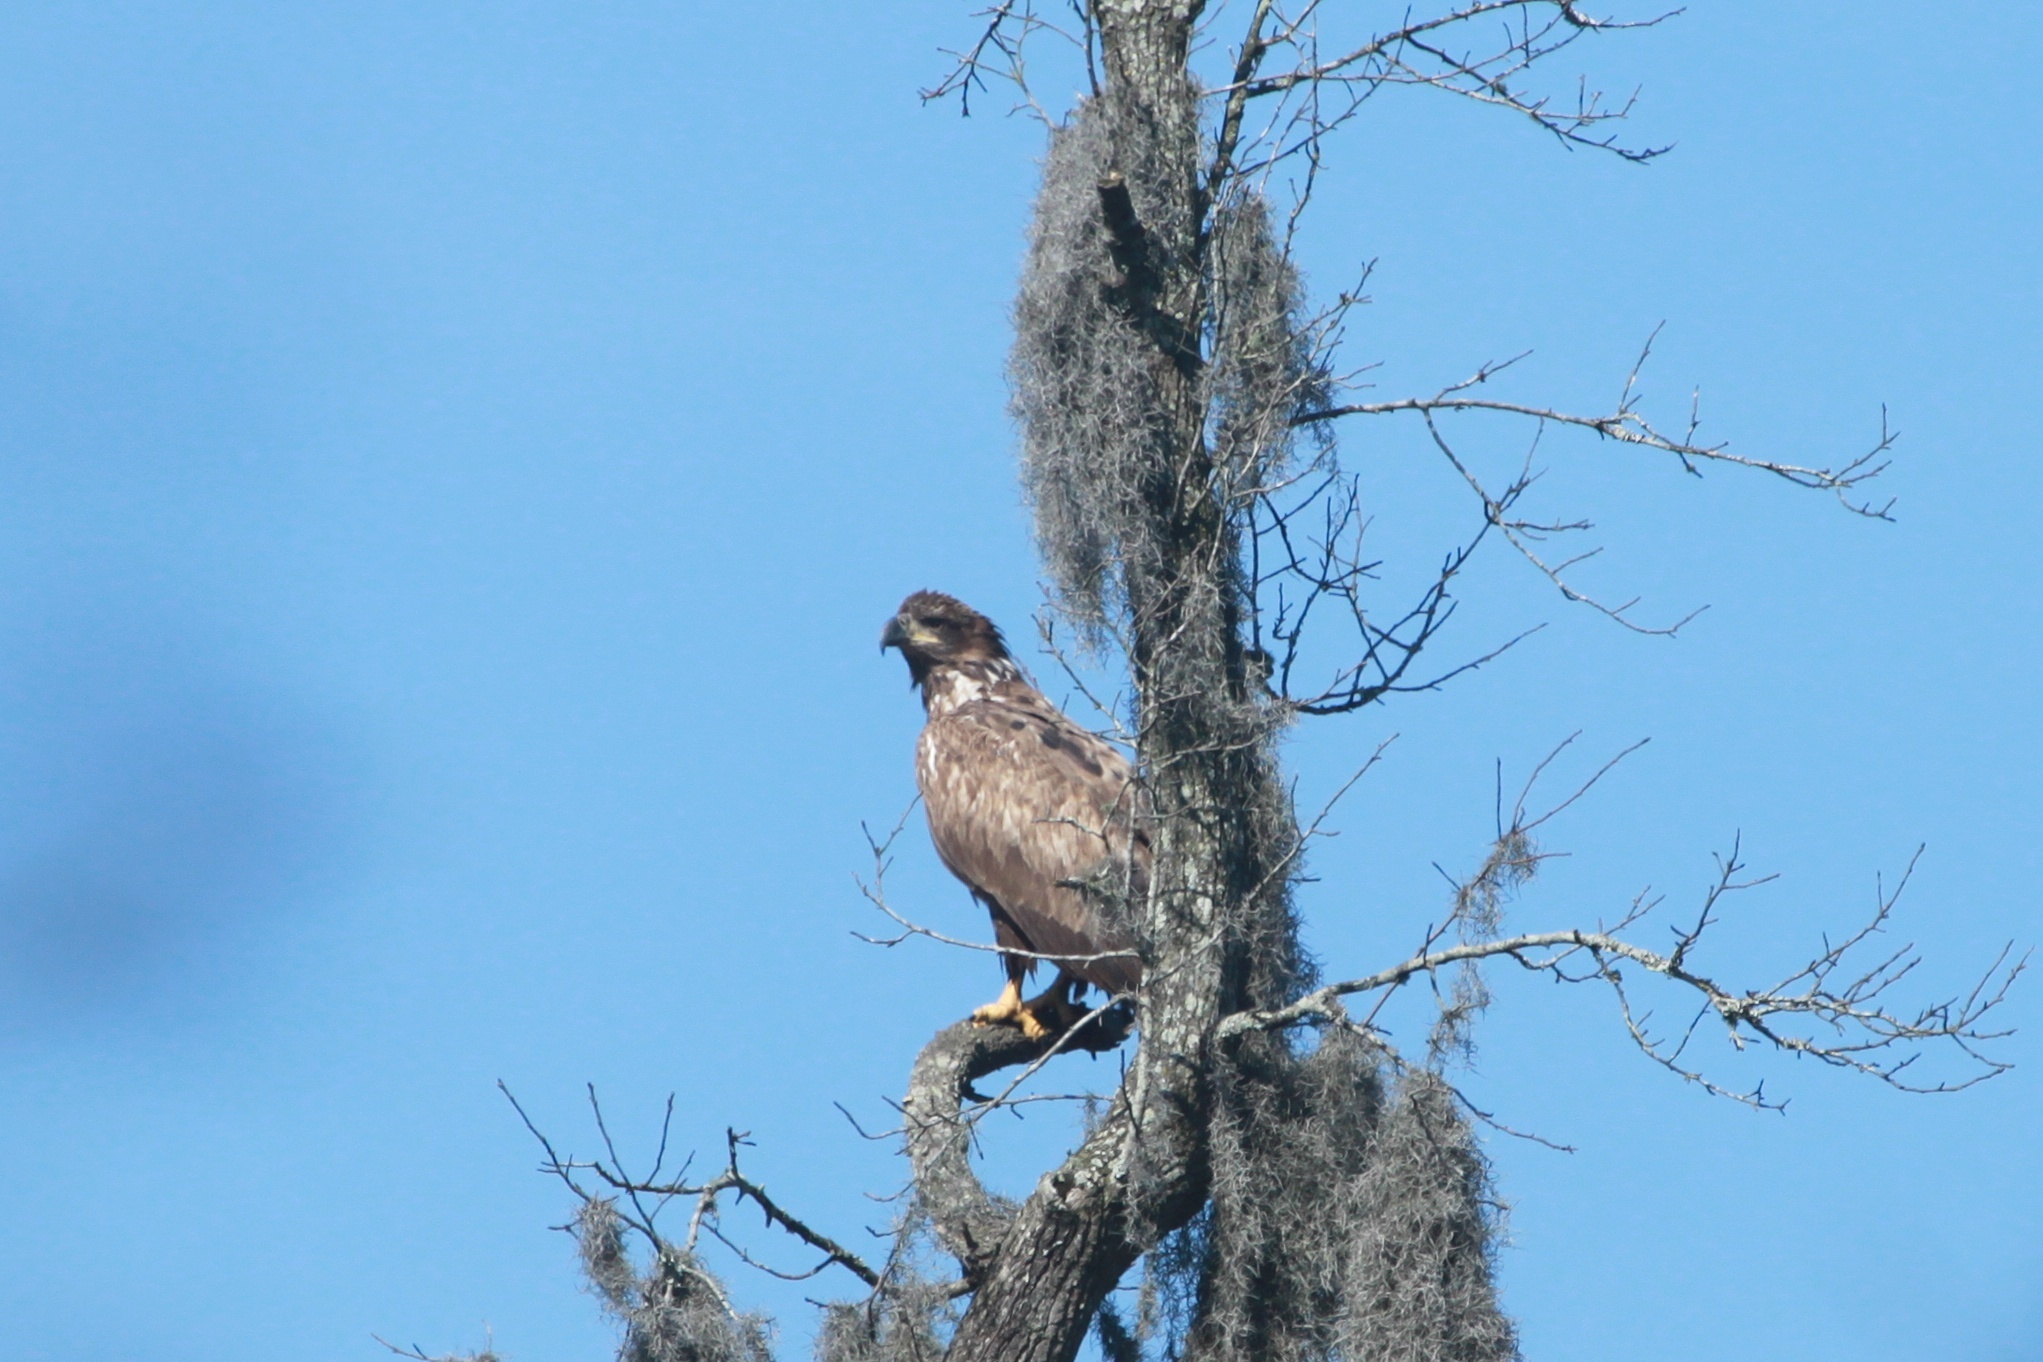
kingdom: Animalia
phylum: Chordata
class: Aves
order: Accipitriformes
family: Accipitridae
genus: Haliaeetus
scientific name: Haliaeetus leucocephalus
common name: Bald eagle
